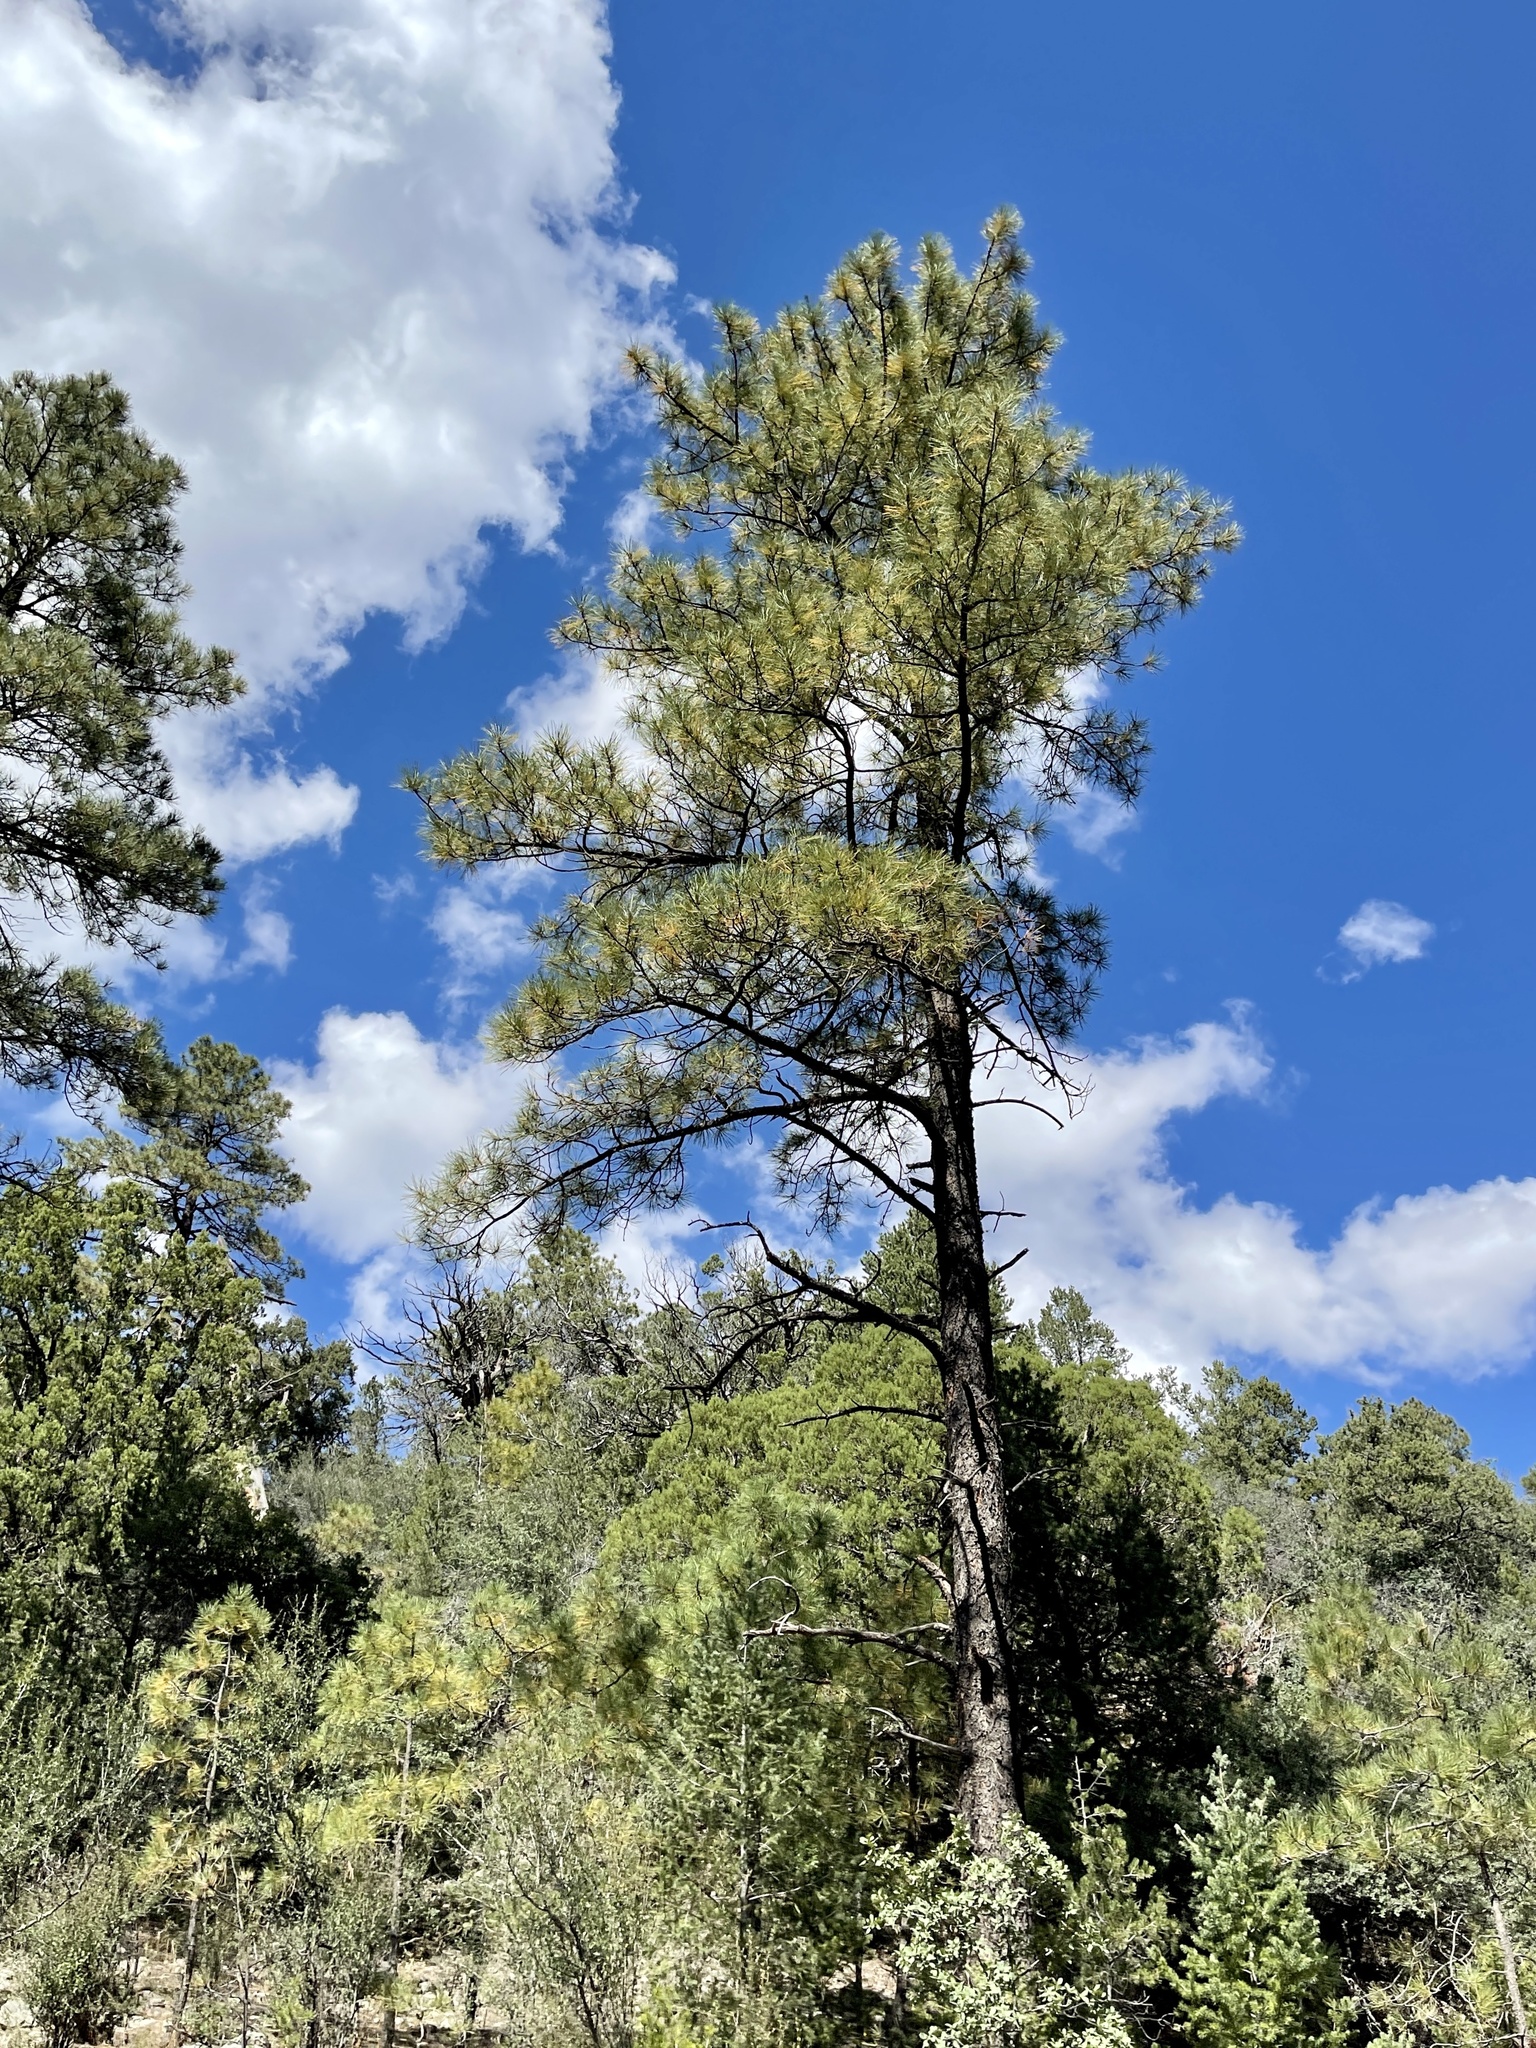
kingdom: Plantae
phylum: Tracheophyta
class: Pinopsida
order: Pinales
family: Pinaceae
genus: Pinus
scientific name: Pinus ponderosa
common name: Western yellow-pine
